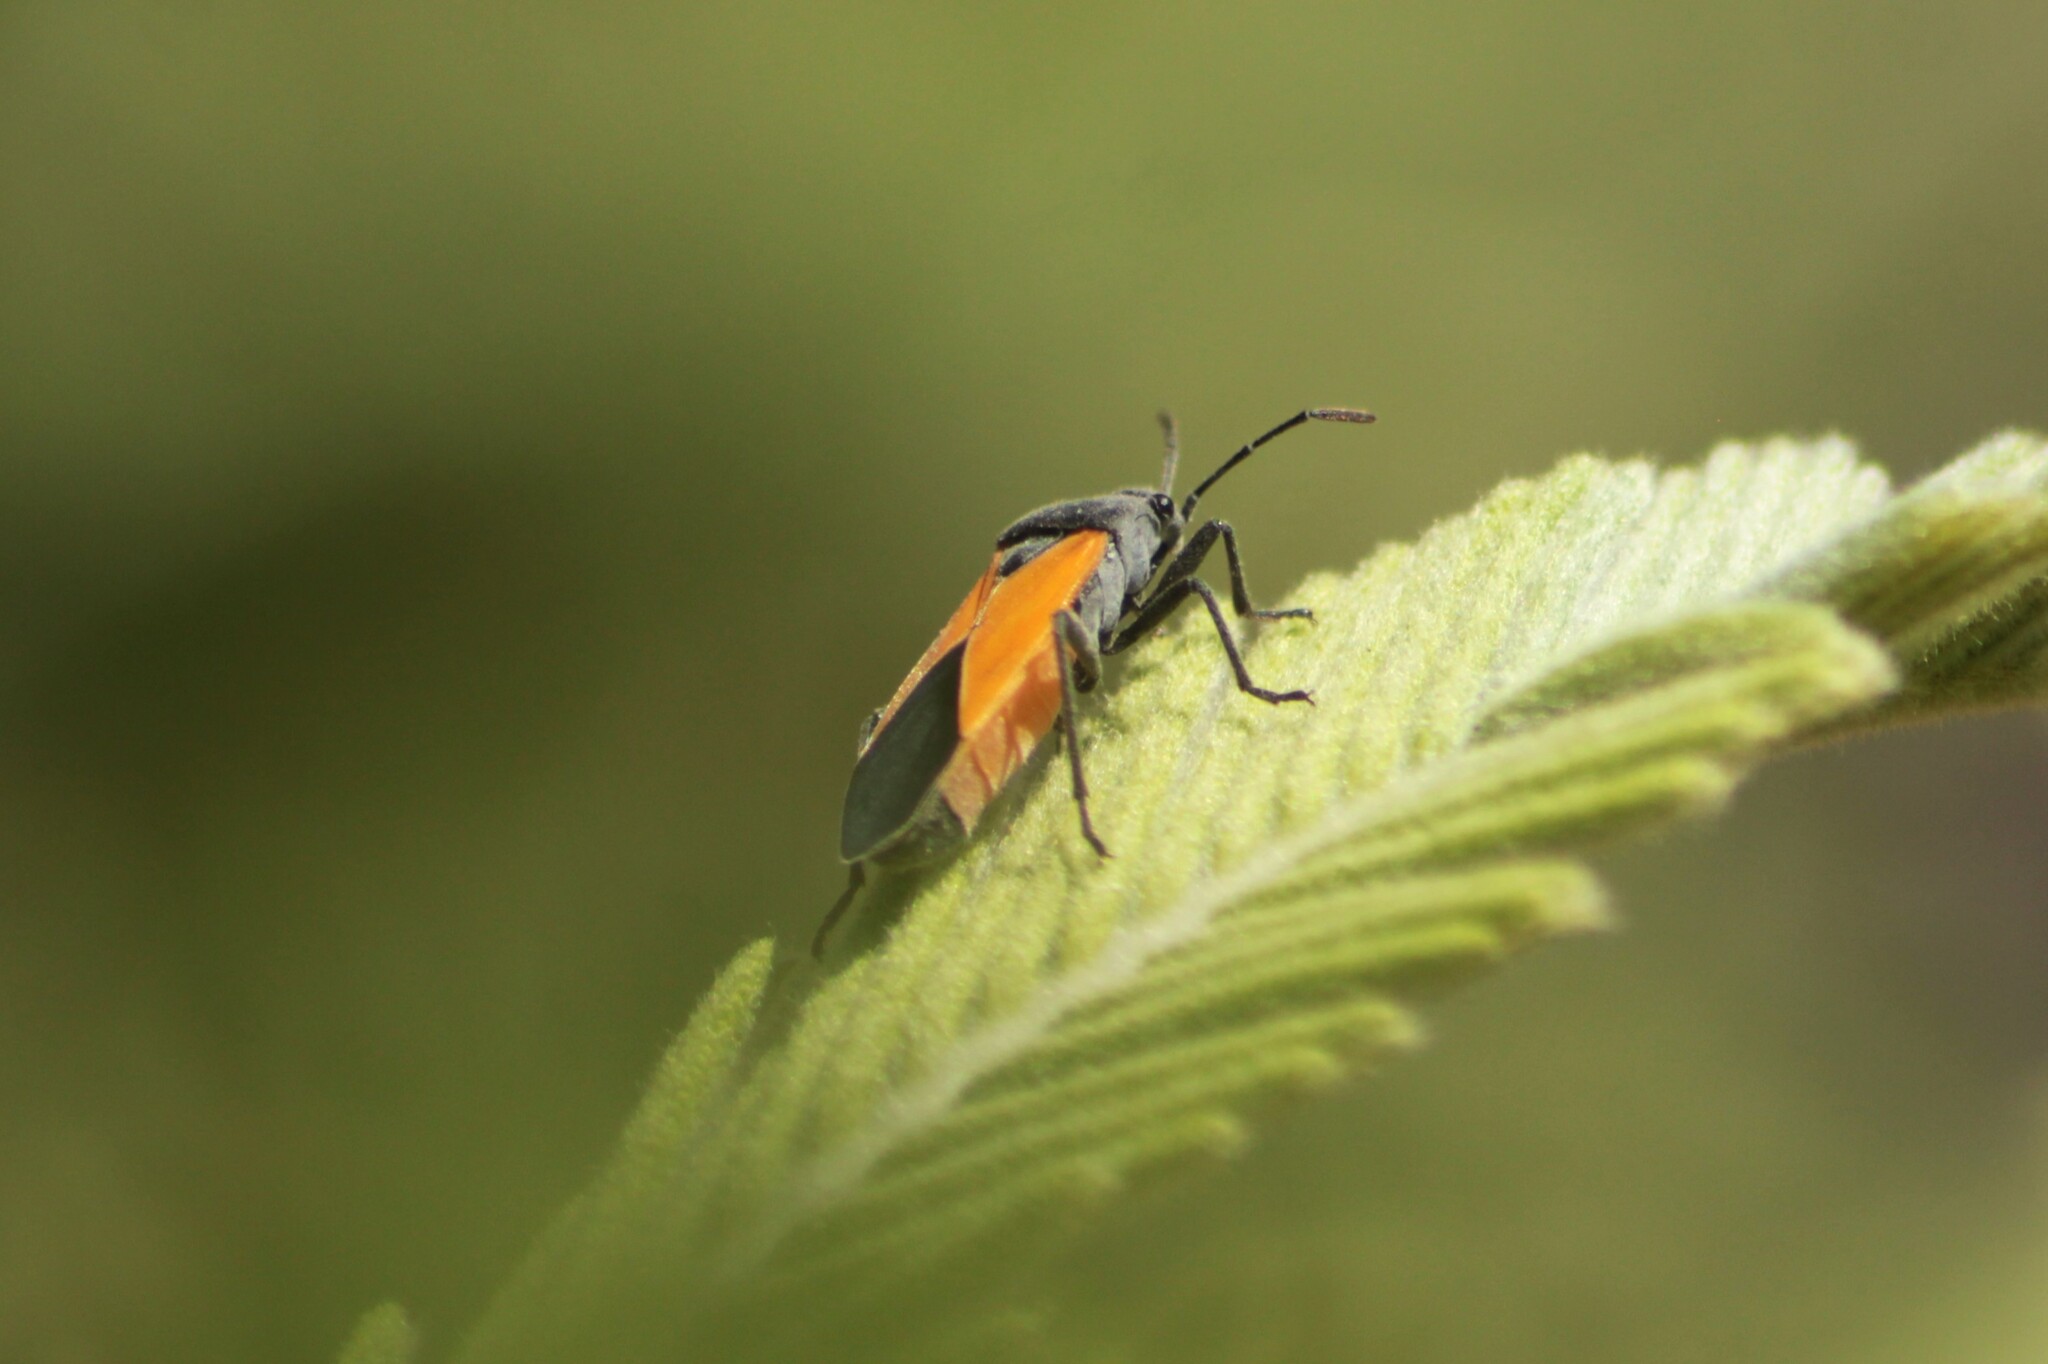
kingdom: Animalia
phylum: Arthropoda
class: Insecta
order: Hemiptera
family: Lygaeidae
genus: Melanopleurus
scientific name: Melanopleurus inflatus
